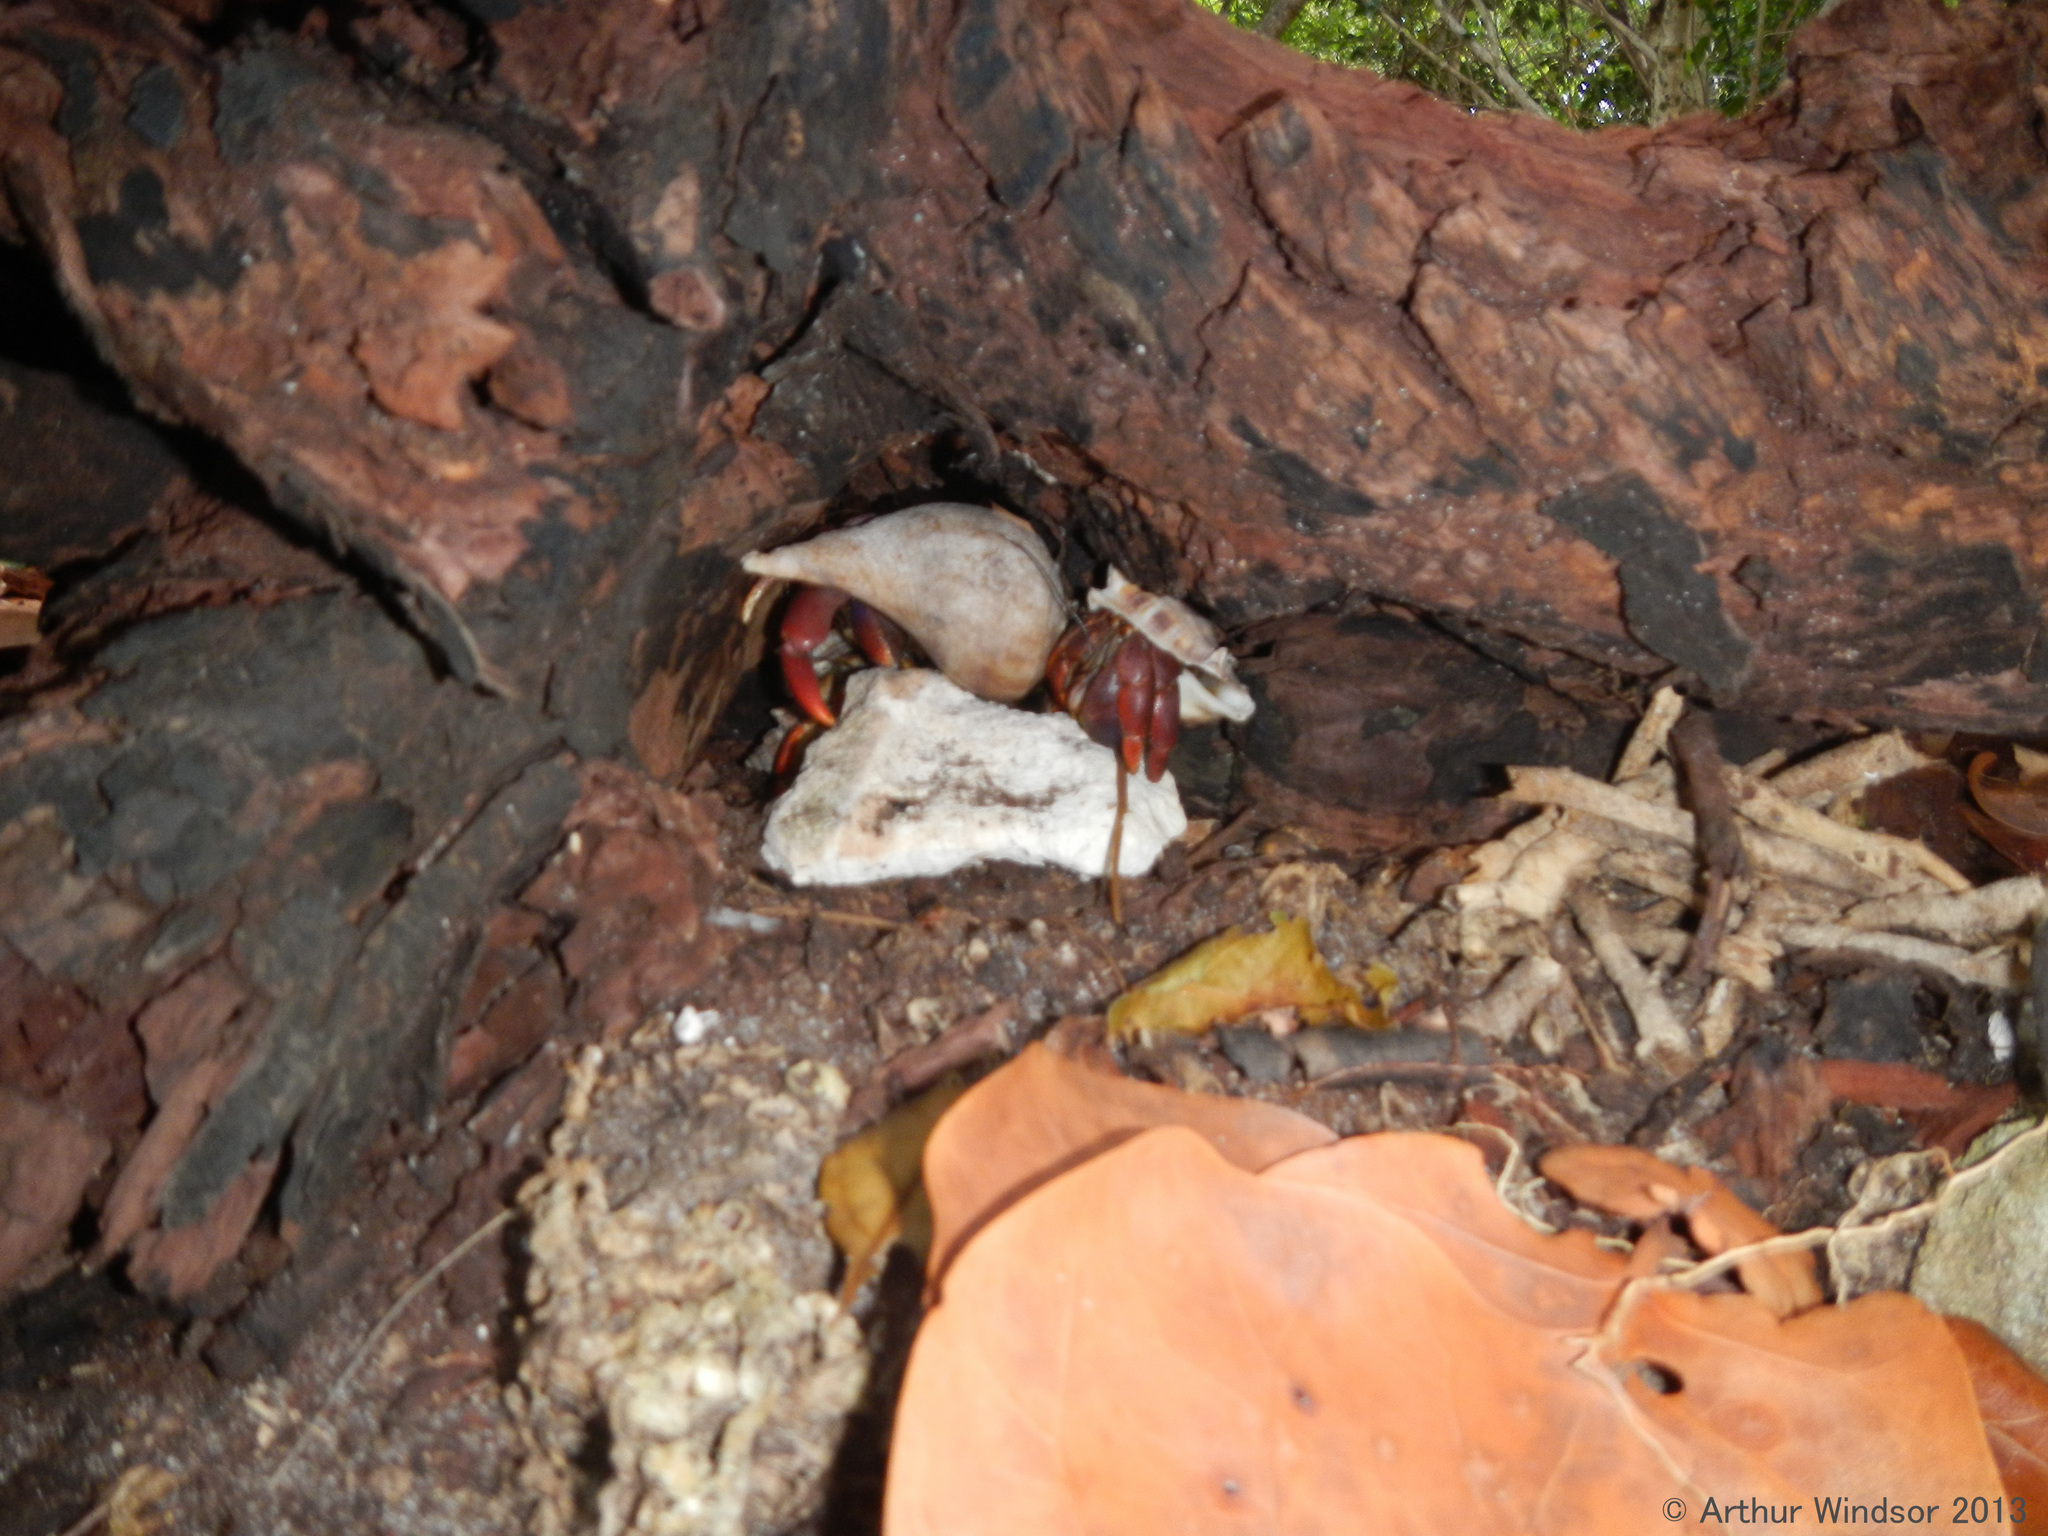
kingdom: Animalia
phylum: Arthropoda
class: Malacostraca
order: Decapoda
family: Coenobitidae
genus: Coenobita
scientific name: Coenobita clypeatus
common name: Caribbean hermit crab
